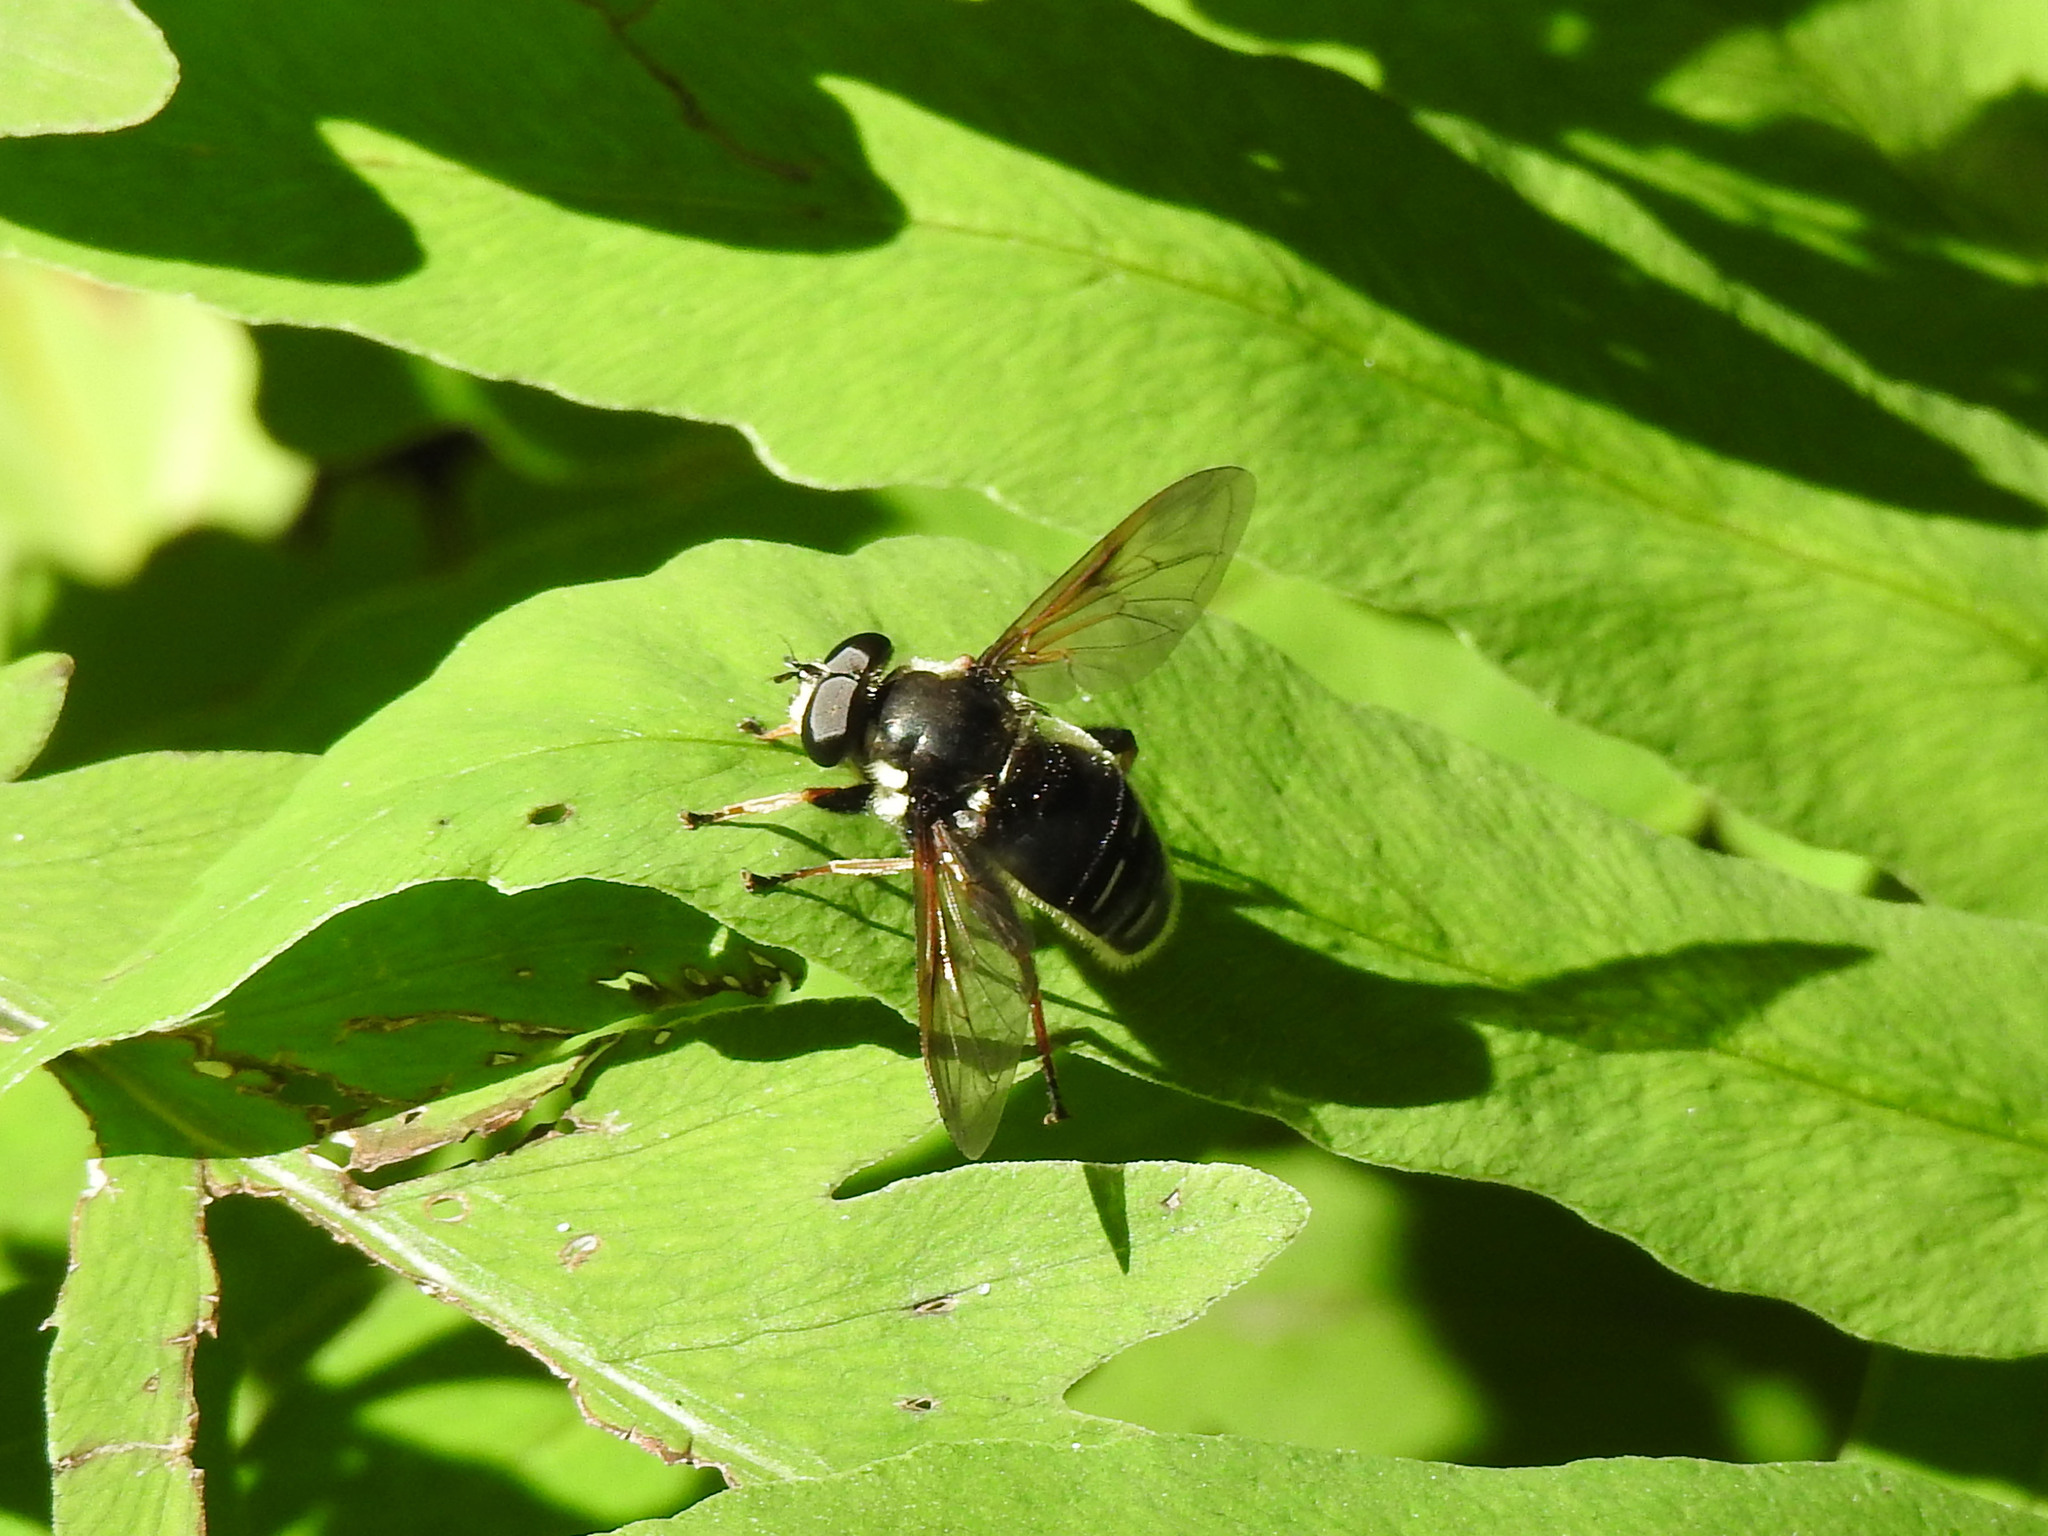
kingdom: Animalia
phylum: Arthropoda
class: Insecta
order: Diptera
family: Syrphidae
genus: Sericomyia
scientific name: Sericomyia militaris
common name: Narrow-banded pond fly
